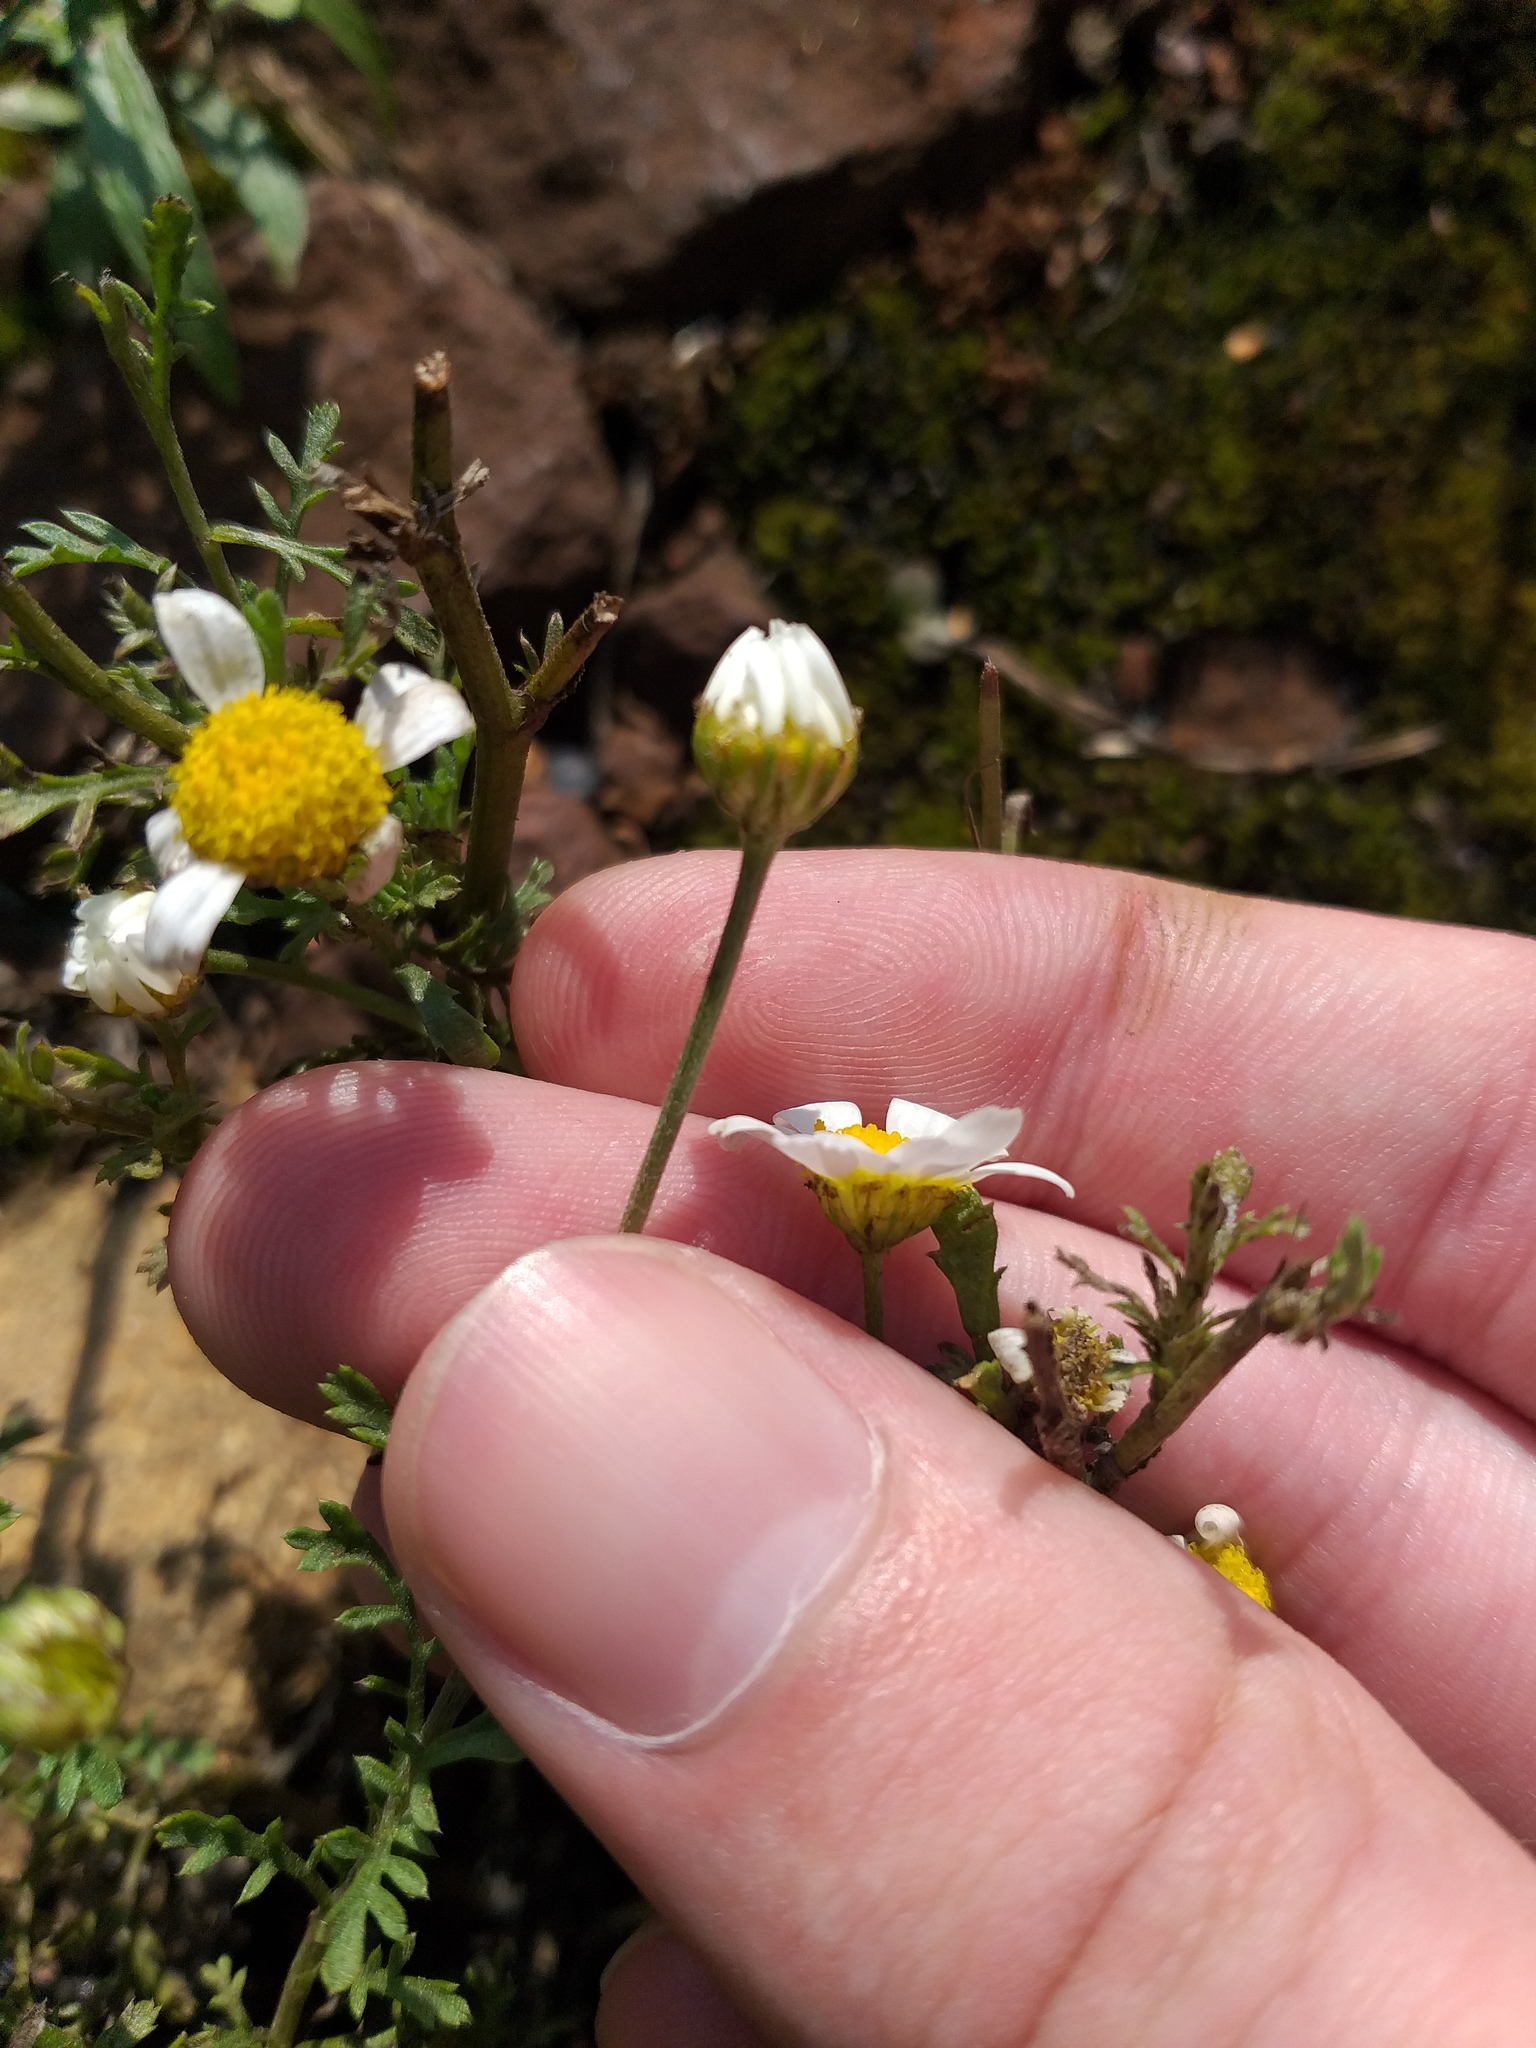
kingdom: Plantae
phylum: Tracheophyta
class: Magnoliopsida
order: Asterales
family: Asteraceae
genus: Anthemis
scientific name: Anthemis cotula
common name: Stinking chamomile
